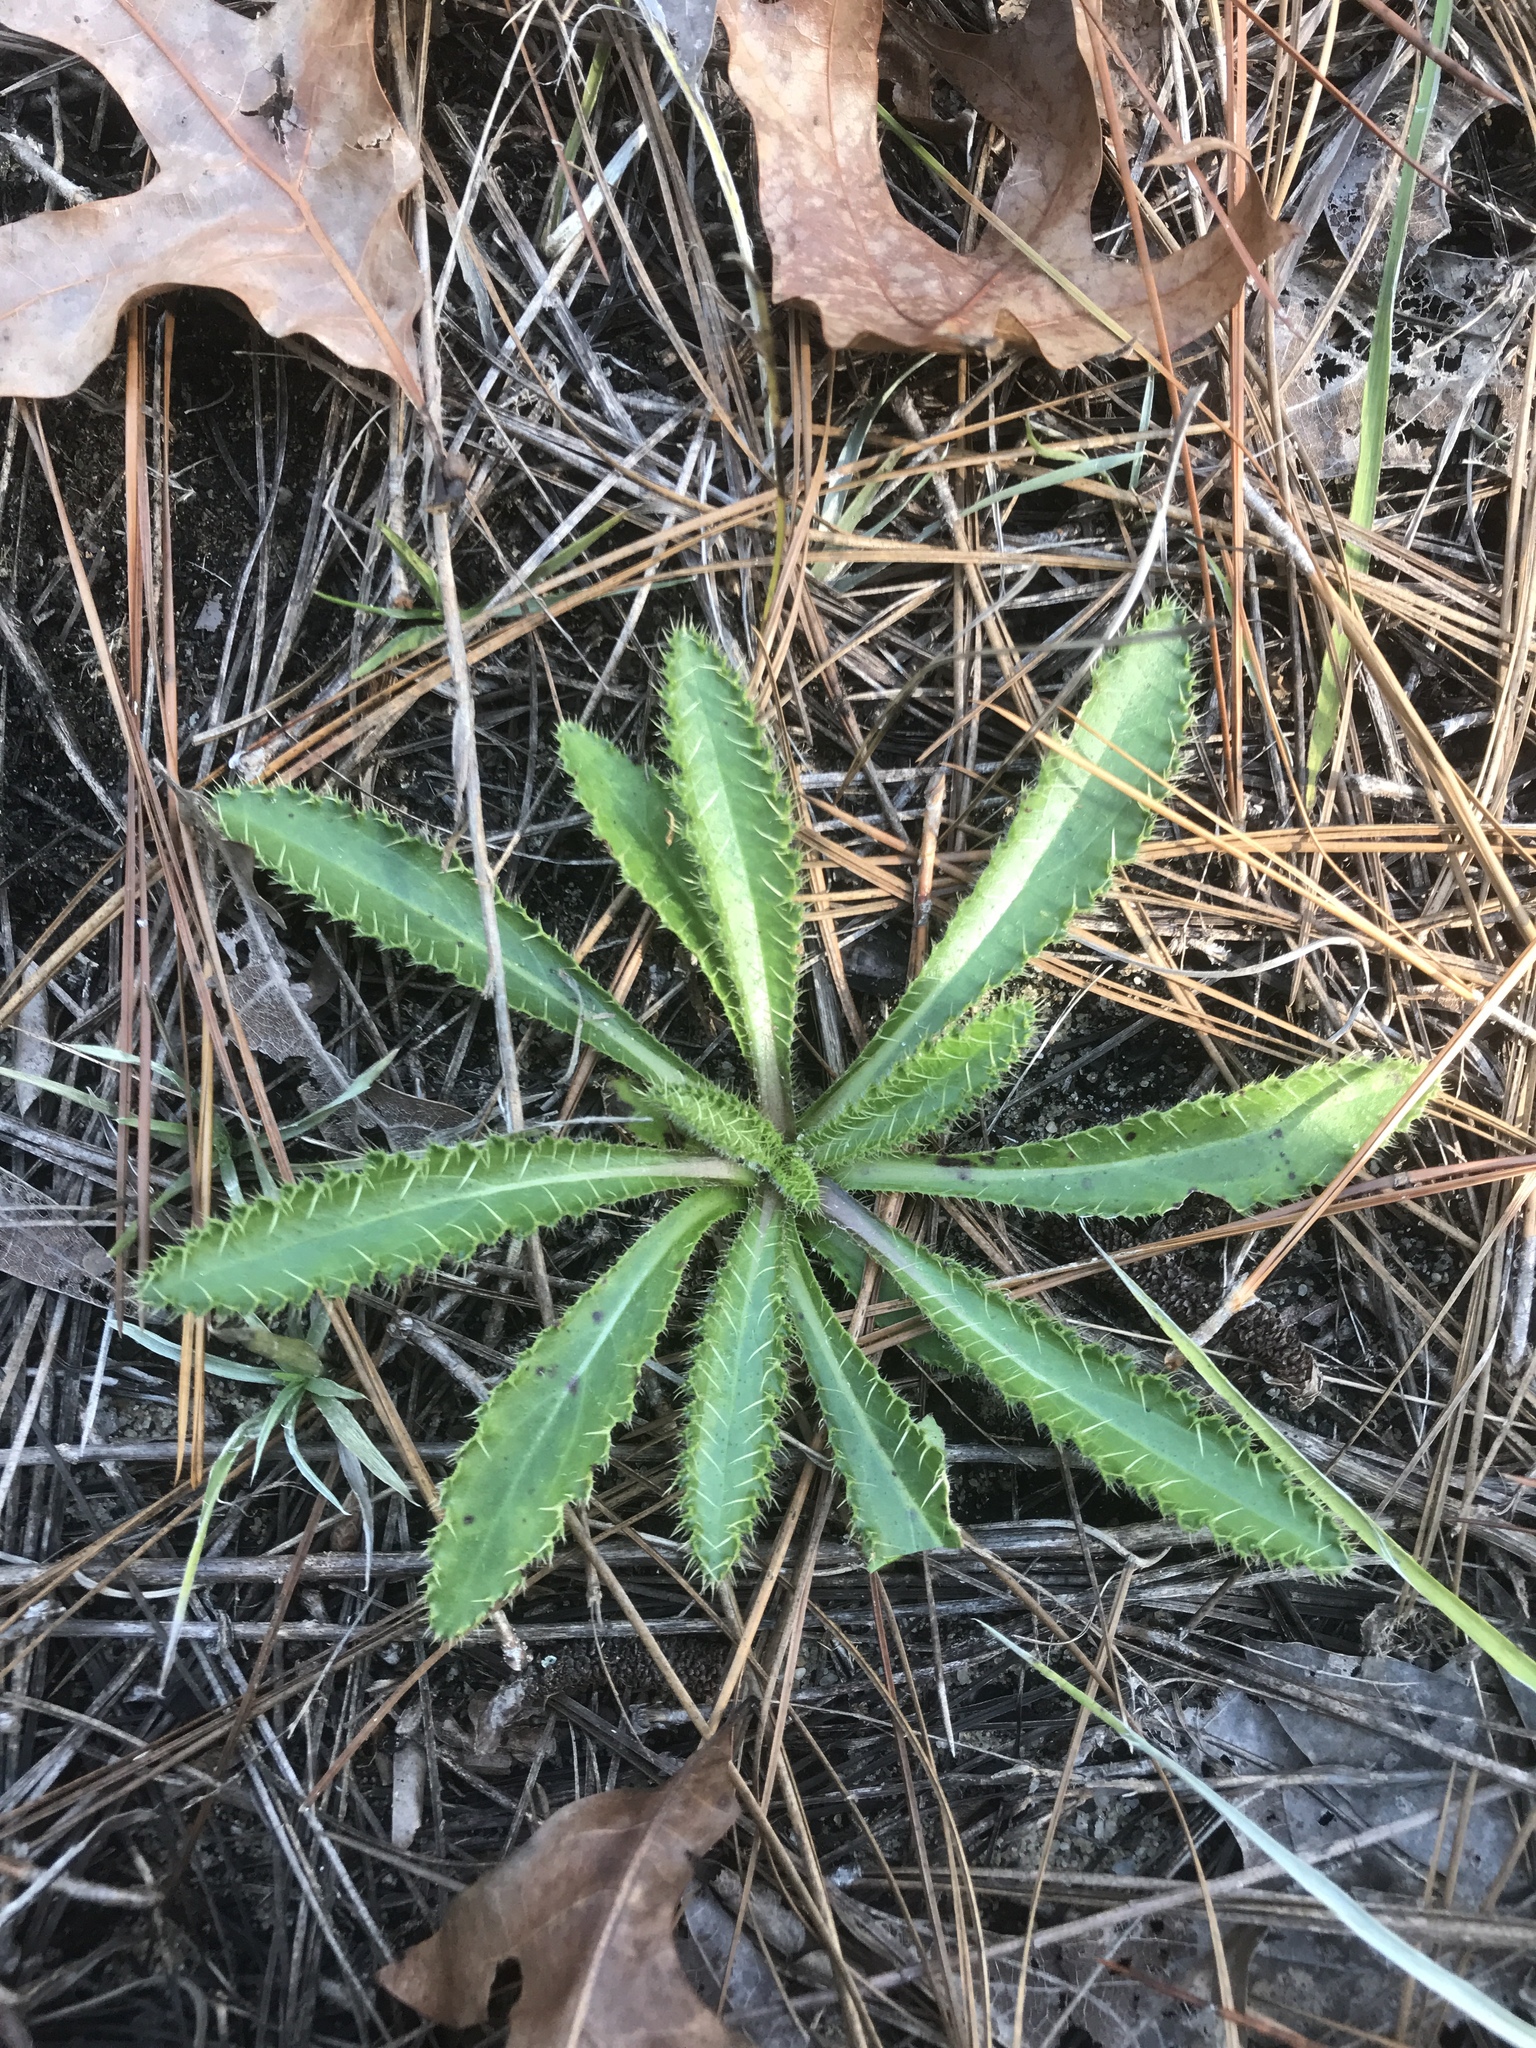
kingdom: Plantae
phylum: Tracheophyta
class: Magnoliopsida
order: Asterales
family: Asteraceae
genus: Cirsium
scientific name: Cirsium repandum
